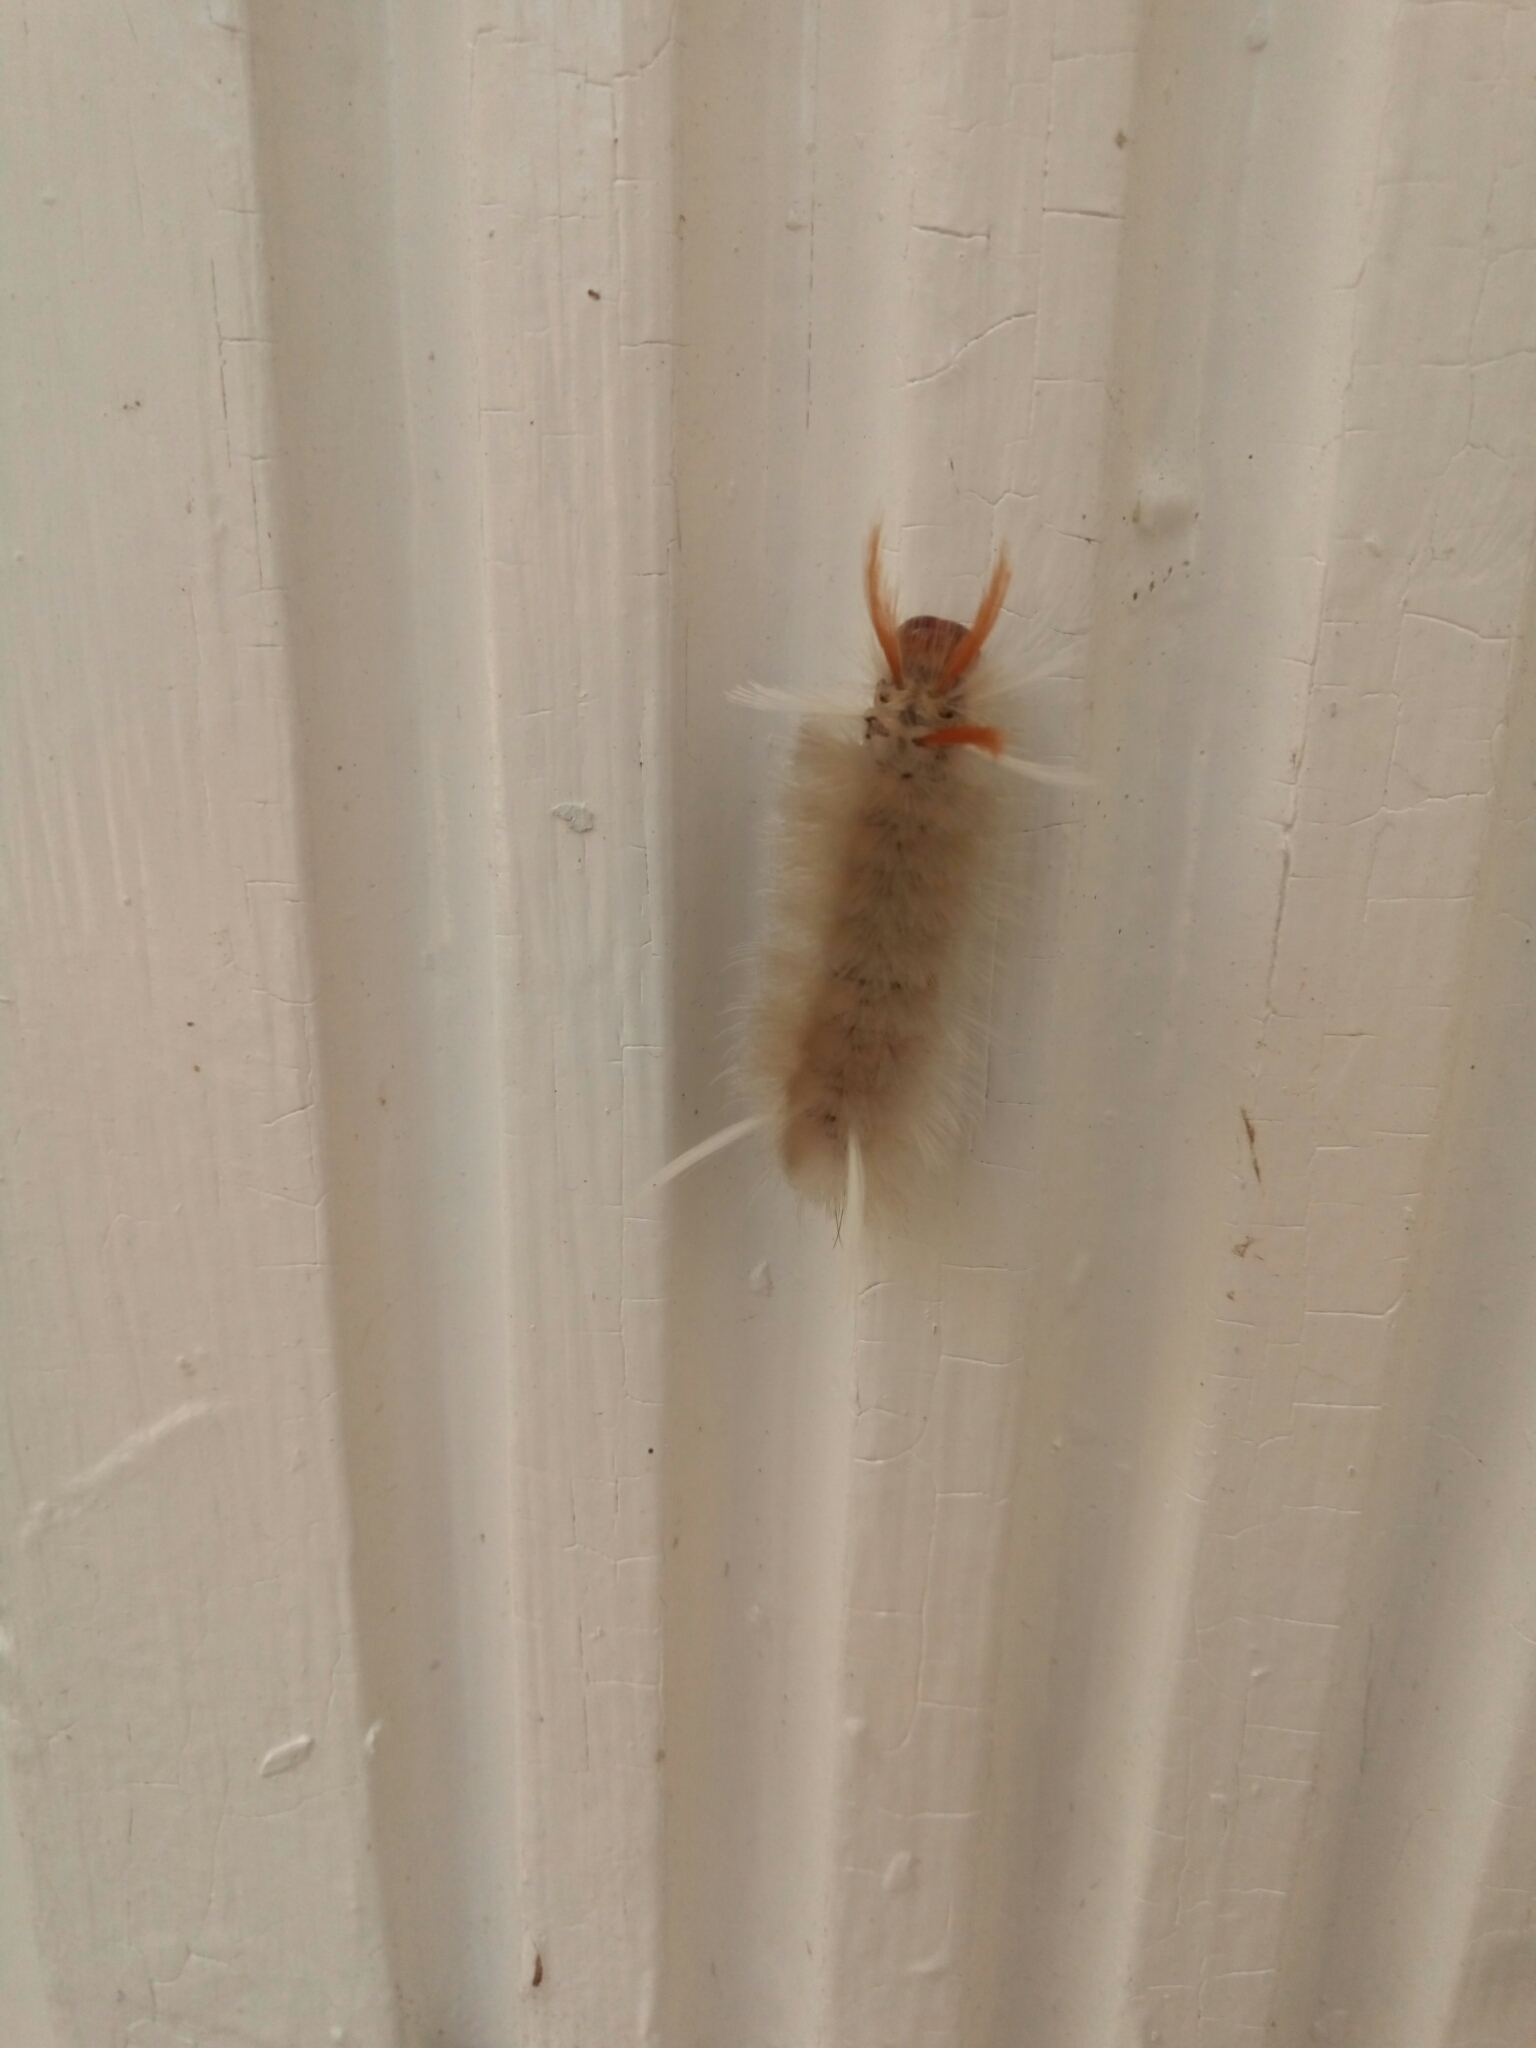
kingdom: Animalia
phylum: Arthropoda
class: Insecta
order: Lepidoptera
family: Erebidae
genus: Halysidota
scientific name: Halysidota harrisii
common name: Sycamore tussock moth
